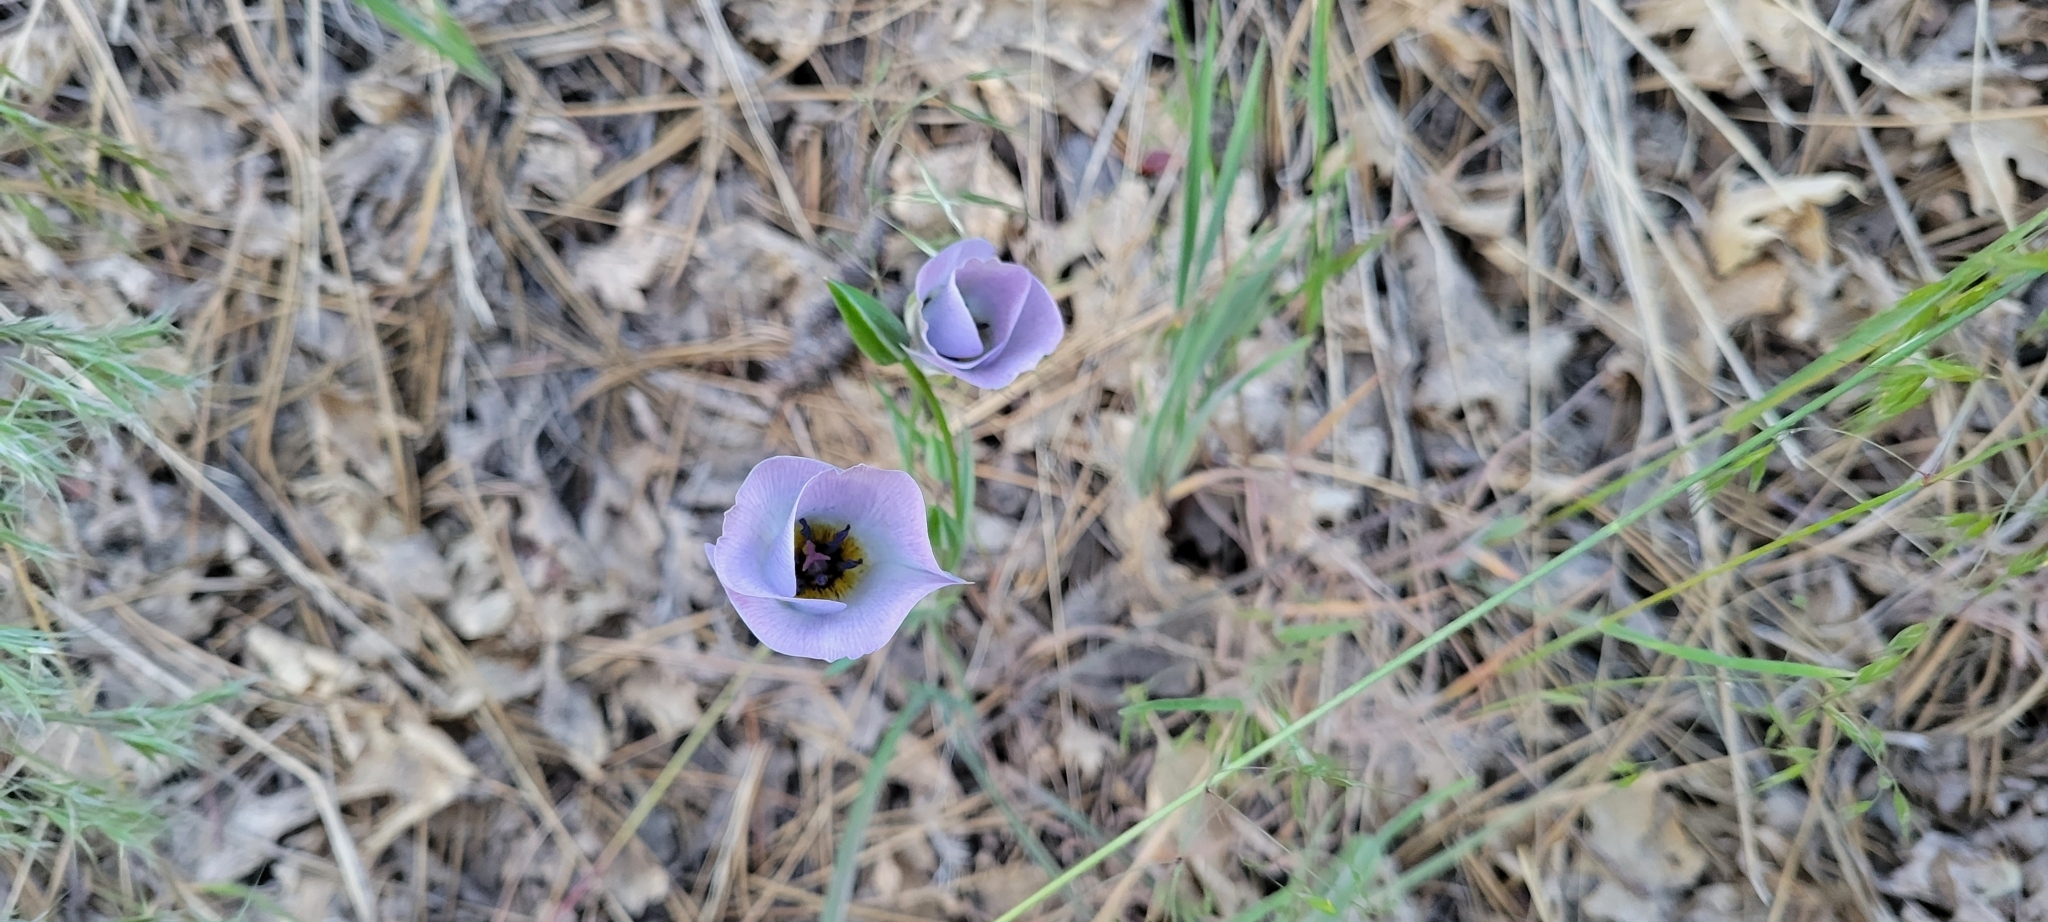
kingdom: Plantae
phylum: Tracheophyta
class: Liliopsida
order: Liliales
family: Liliaceae
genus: Calochortus
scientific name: Calochortus invenustus
